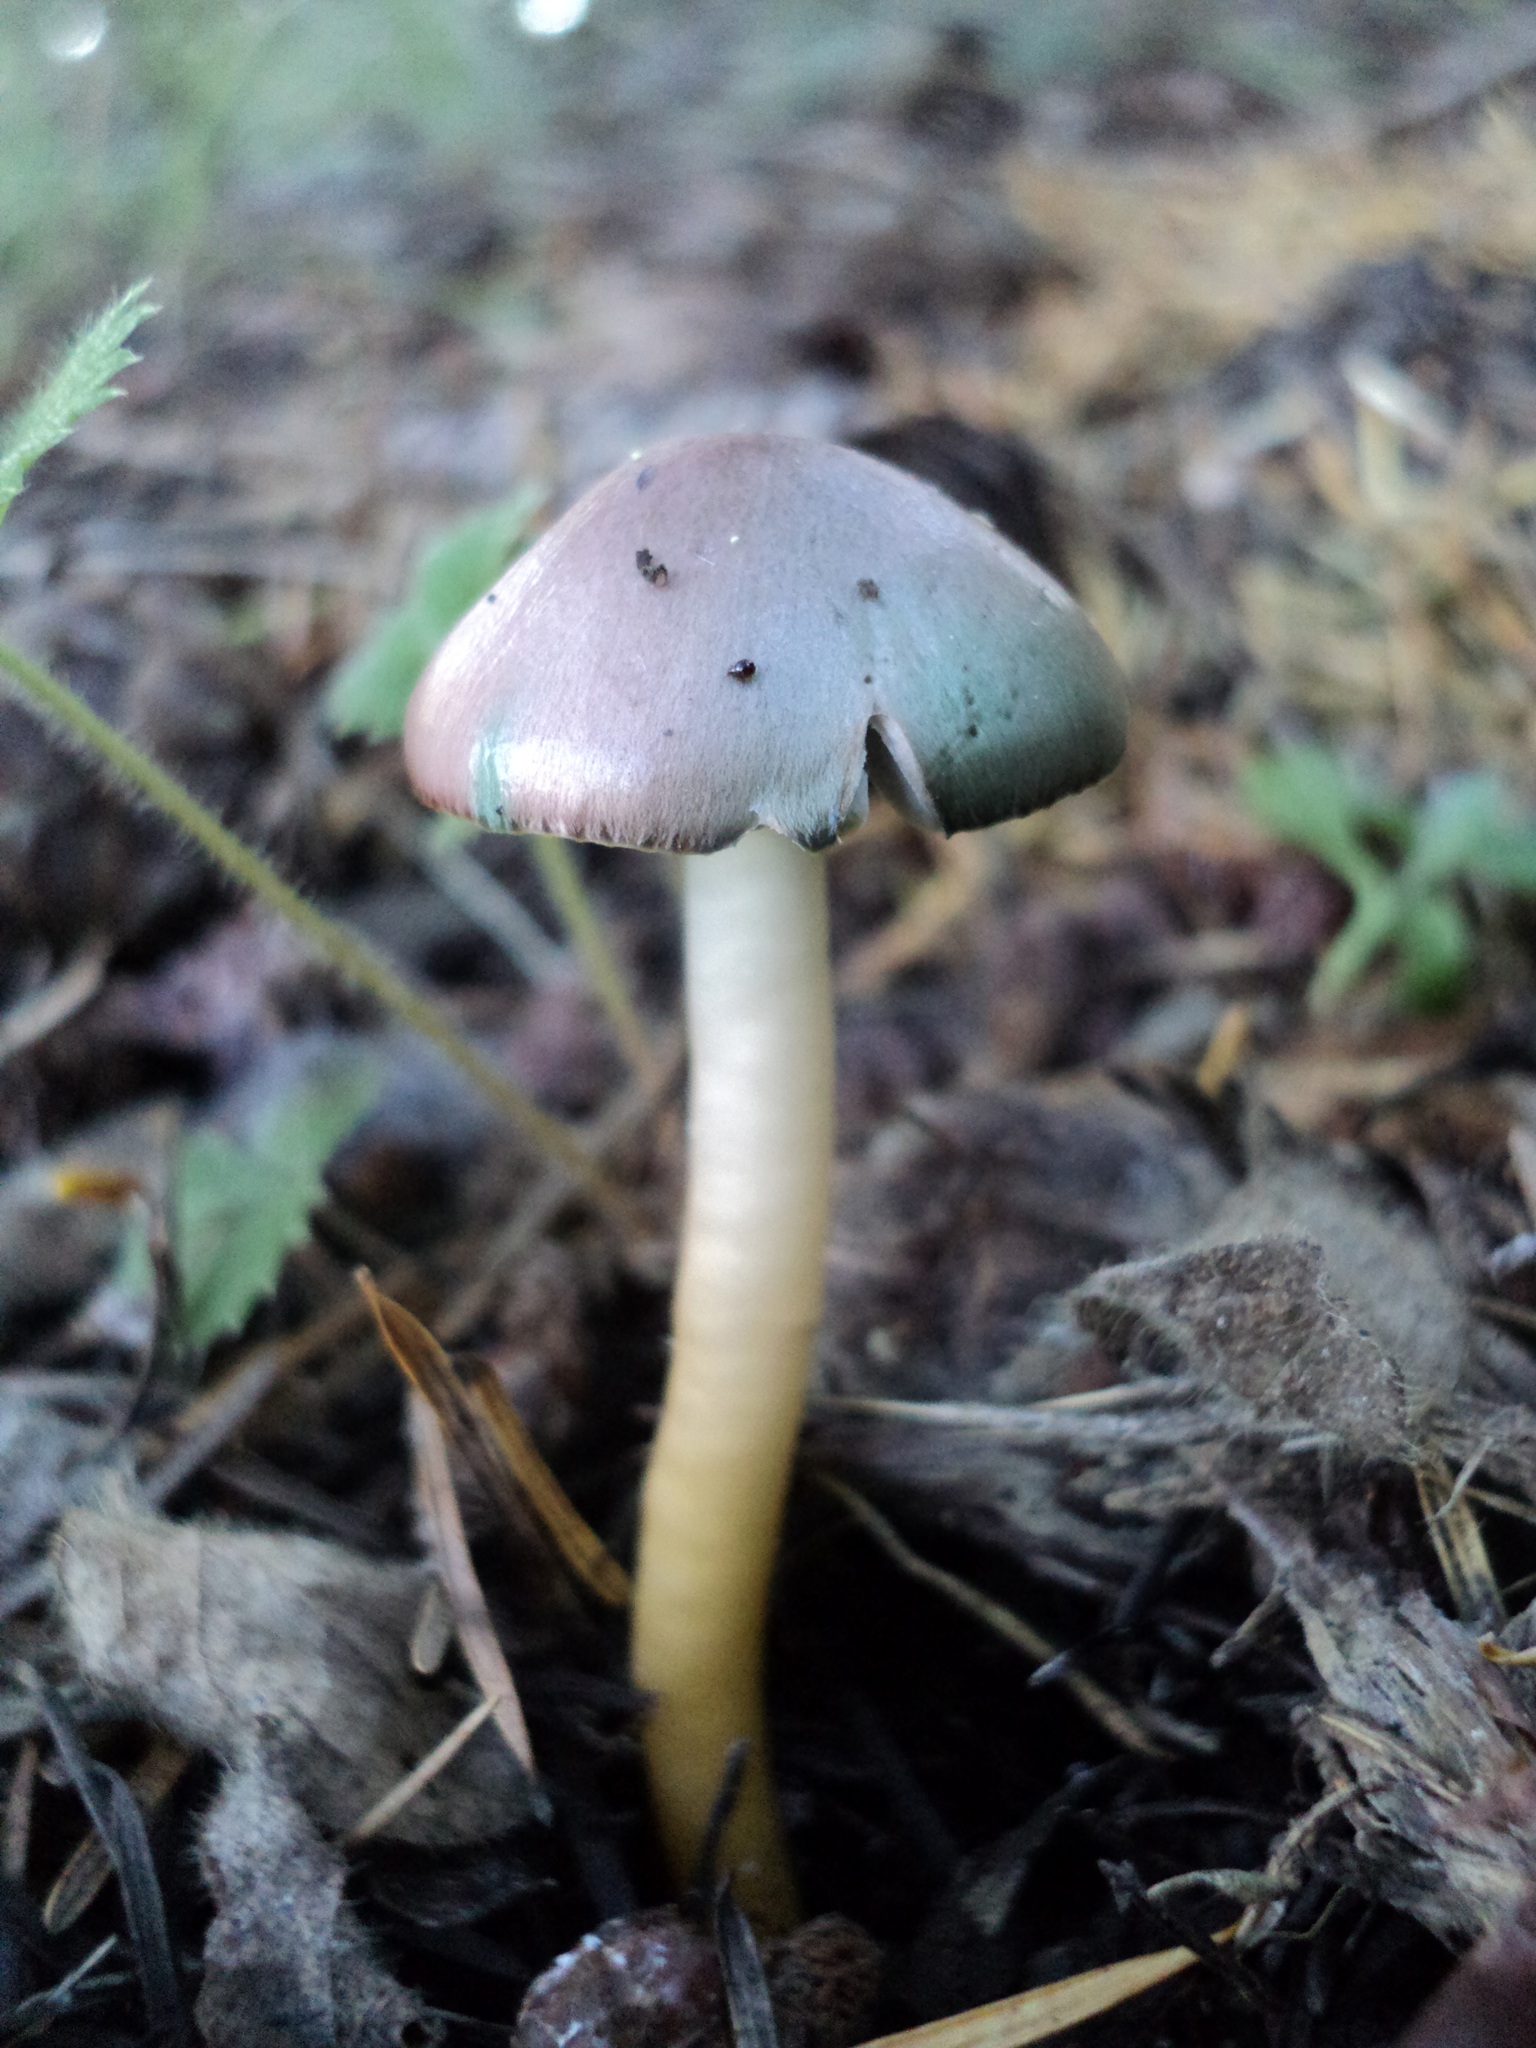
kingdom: Fungi
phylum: Basidiomycota
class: Agaricomycetes
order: Agaricales
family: Hygrophoraceae
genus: Gliophorus
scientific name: Gliophorus psittacinus
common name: Parrot wax-cap
